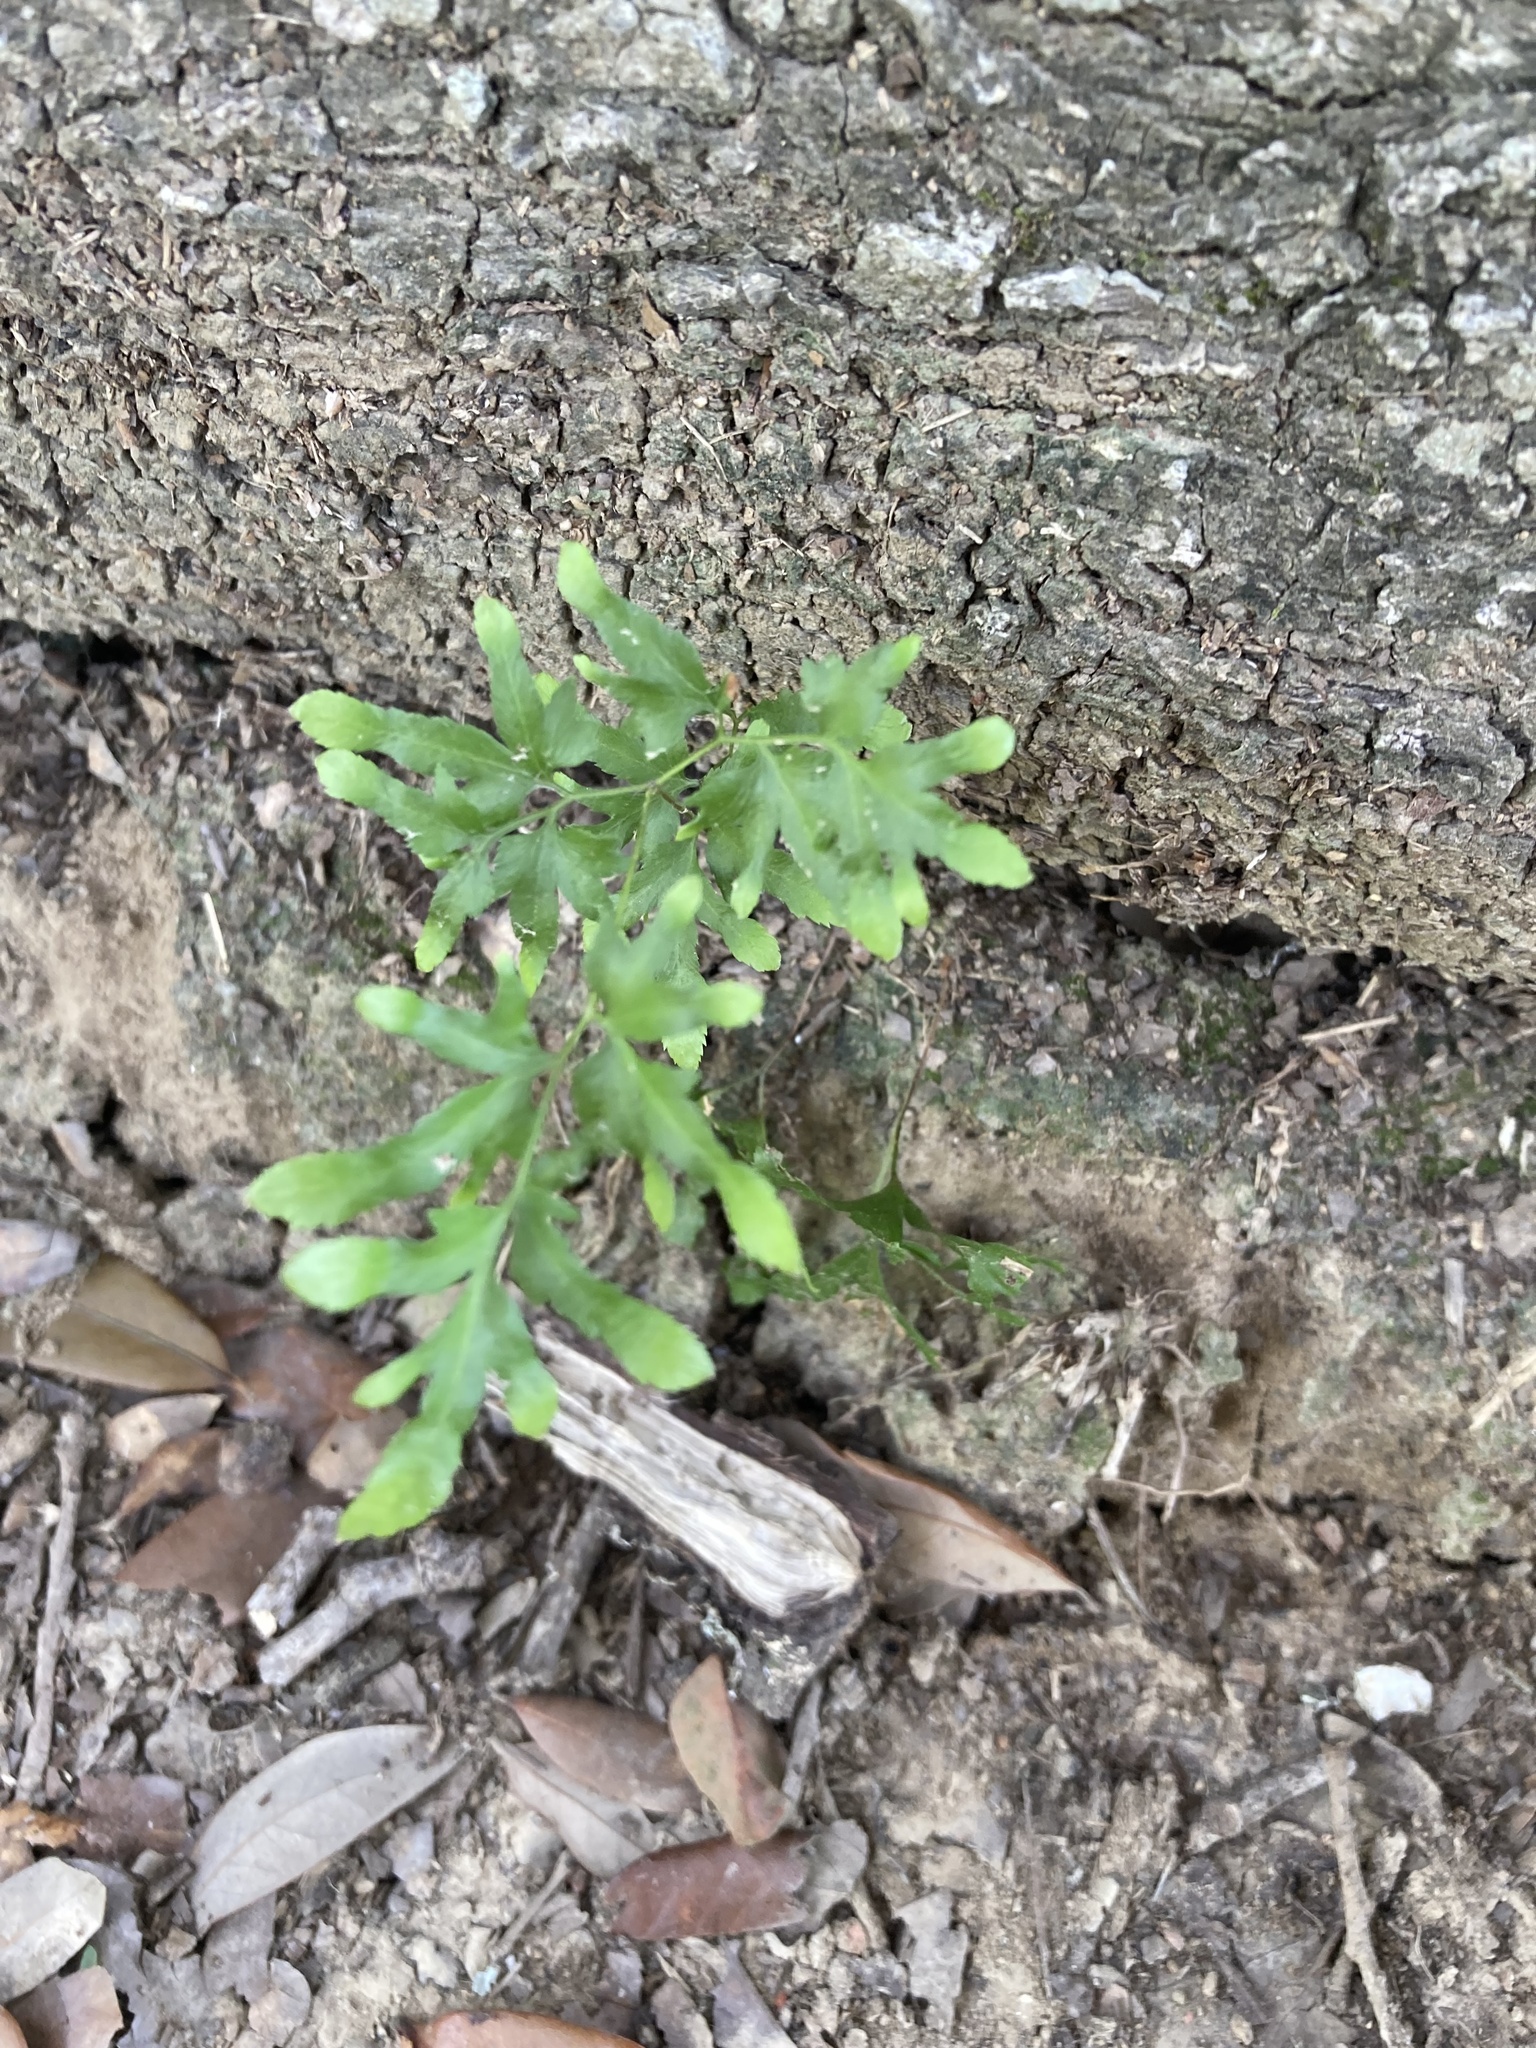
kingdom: Plantae
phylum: Tracheophyta
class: Polypodiopsida
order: Schizaeales
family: Lygodiaceae
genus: Lygodium
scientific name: Lygodium japonicum
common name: Japanese climbing fern
